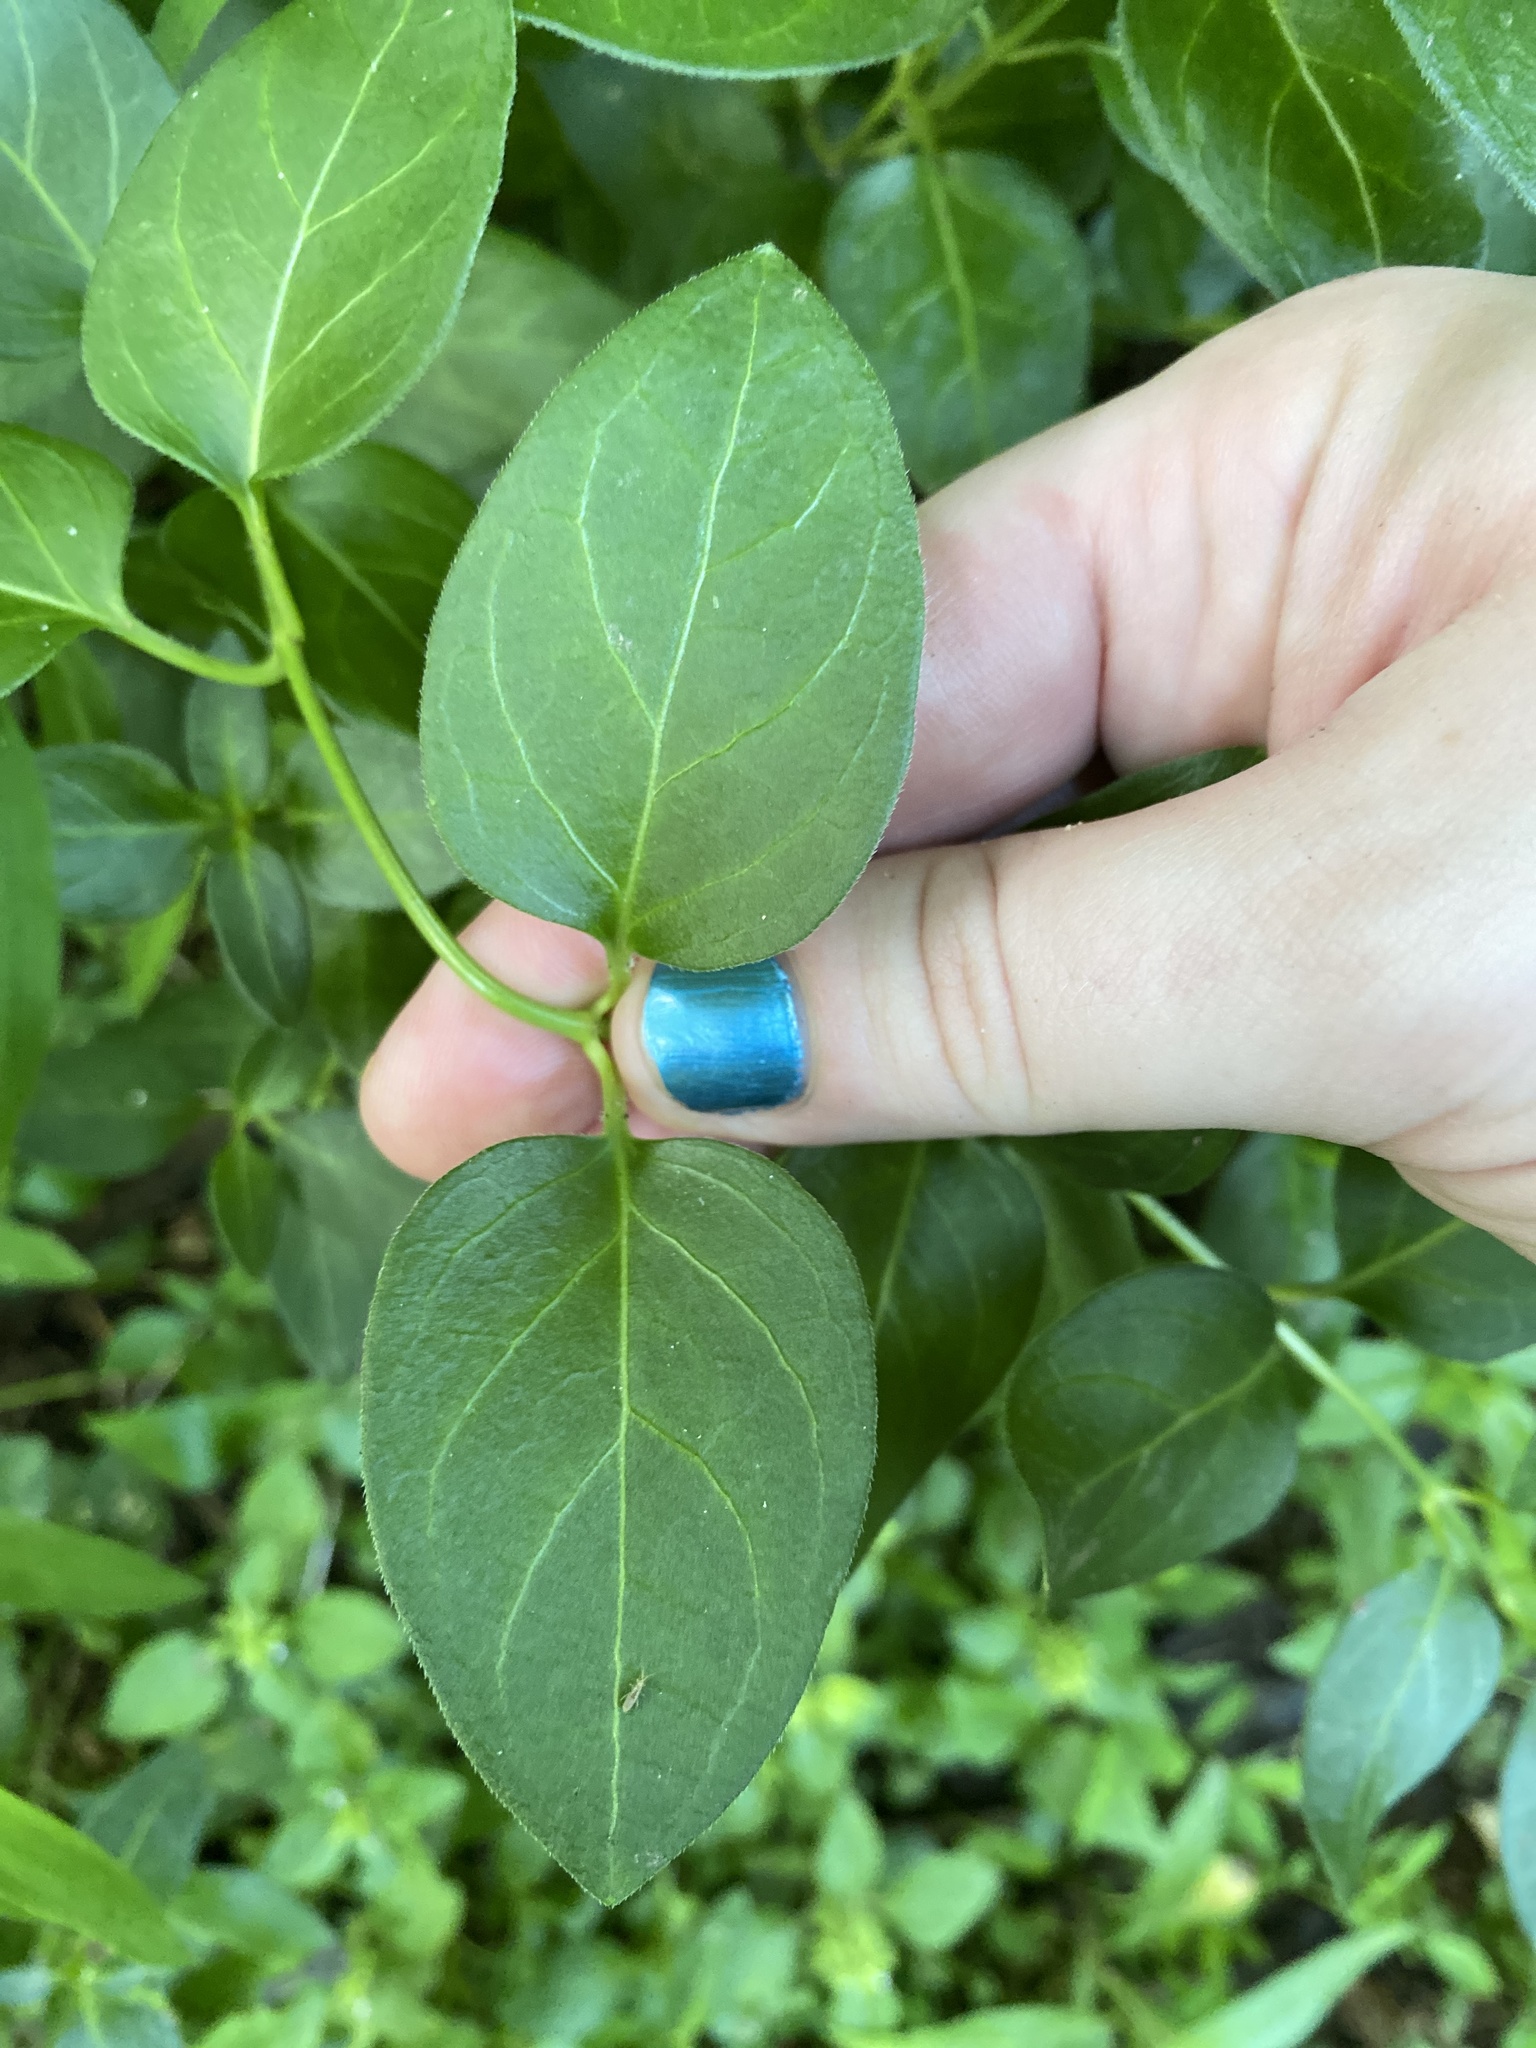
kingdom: Plantae
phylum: Tracheophyta
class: Magnoliopsida
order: Gentianales
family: Apocynaceae
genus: Vinca
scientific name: Vinca major
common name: Greater periwinkle
